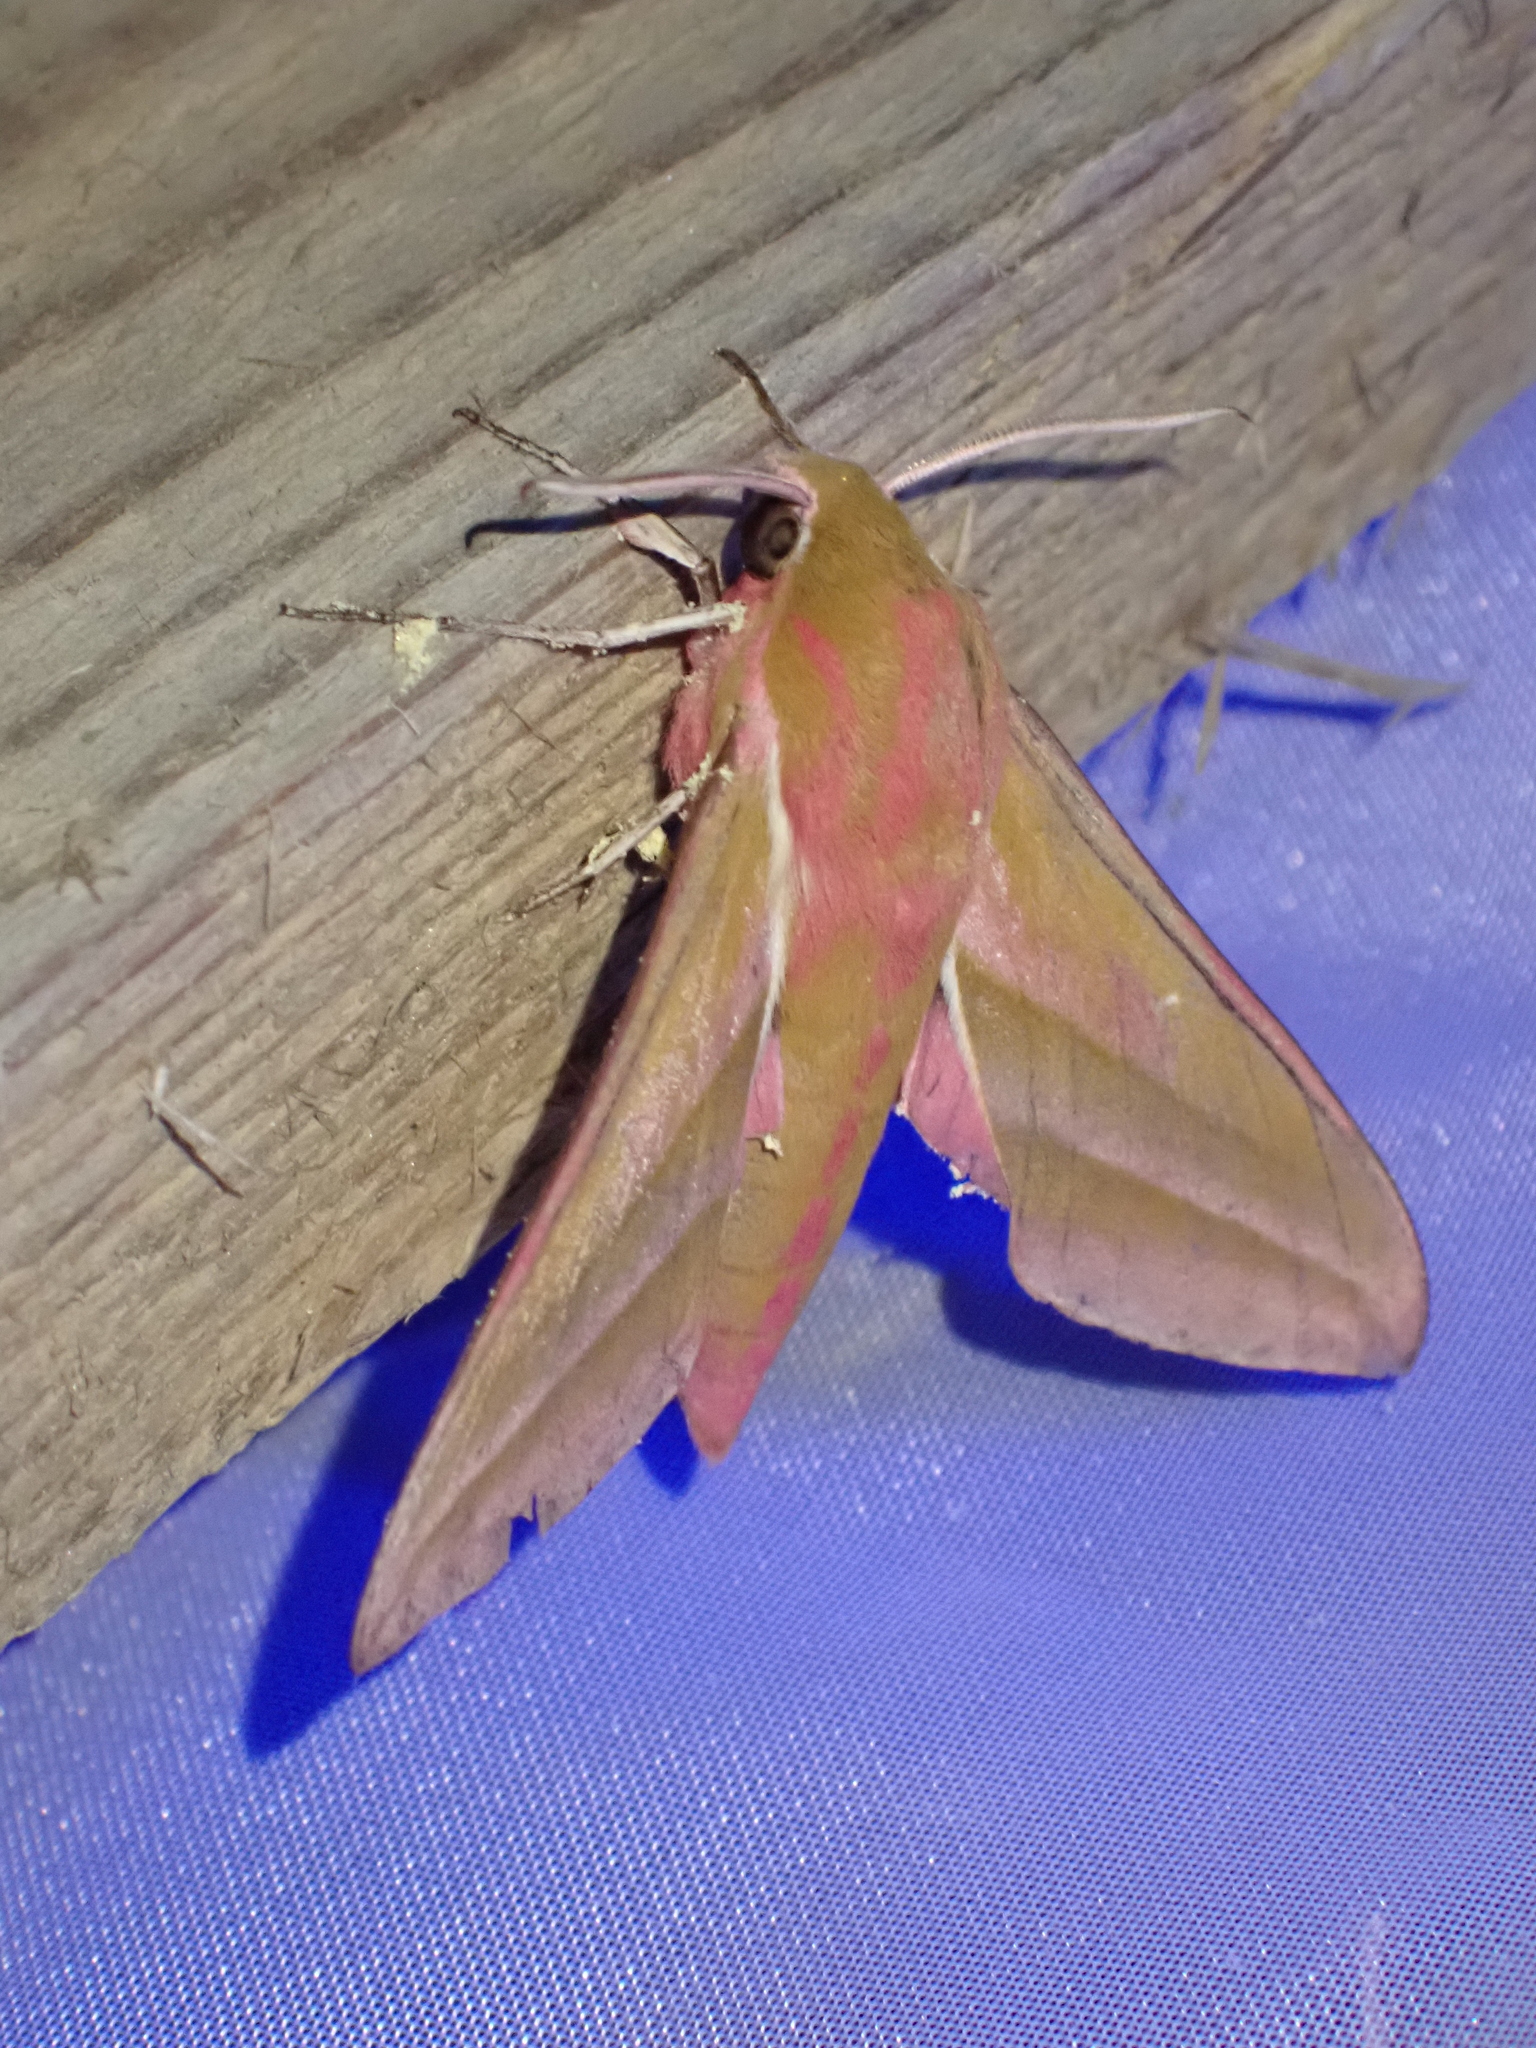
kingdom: Animalia
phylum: Arthropoda
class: Insecta
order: Lepidoptera
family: Sphingidae
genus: Deilephila
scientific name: Deilephila elpenor
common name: Elephant hawk-moth
